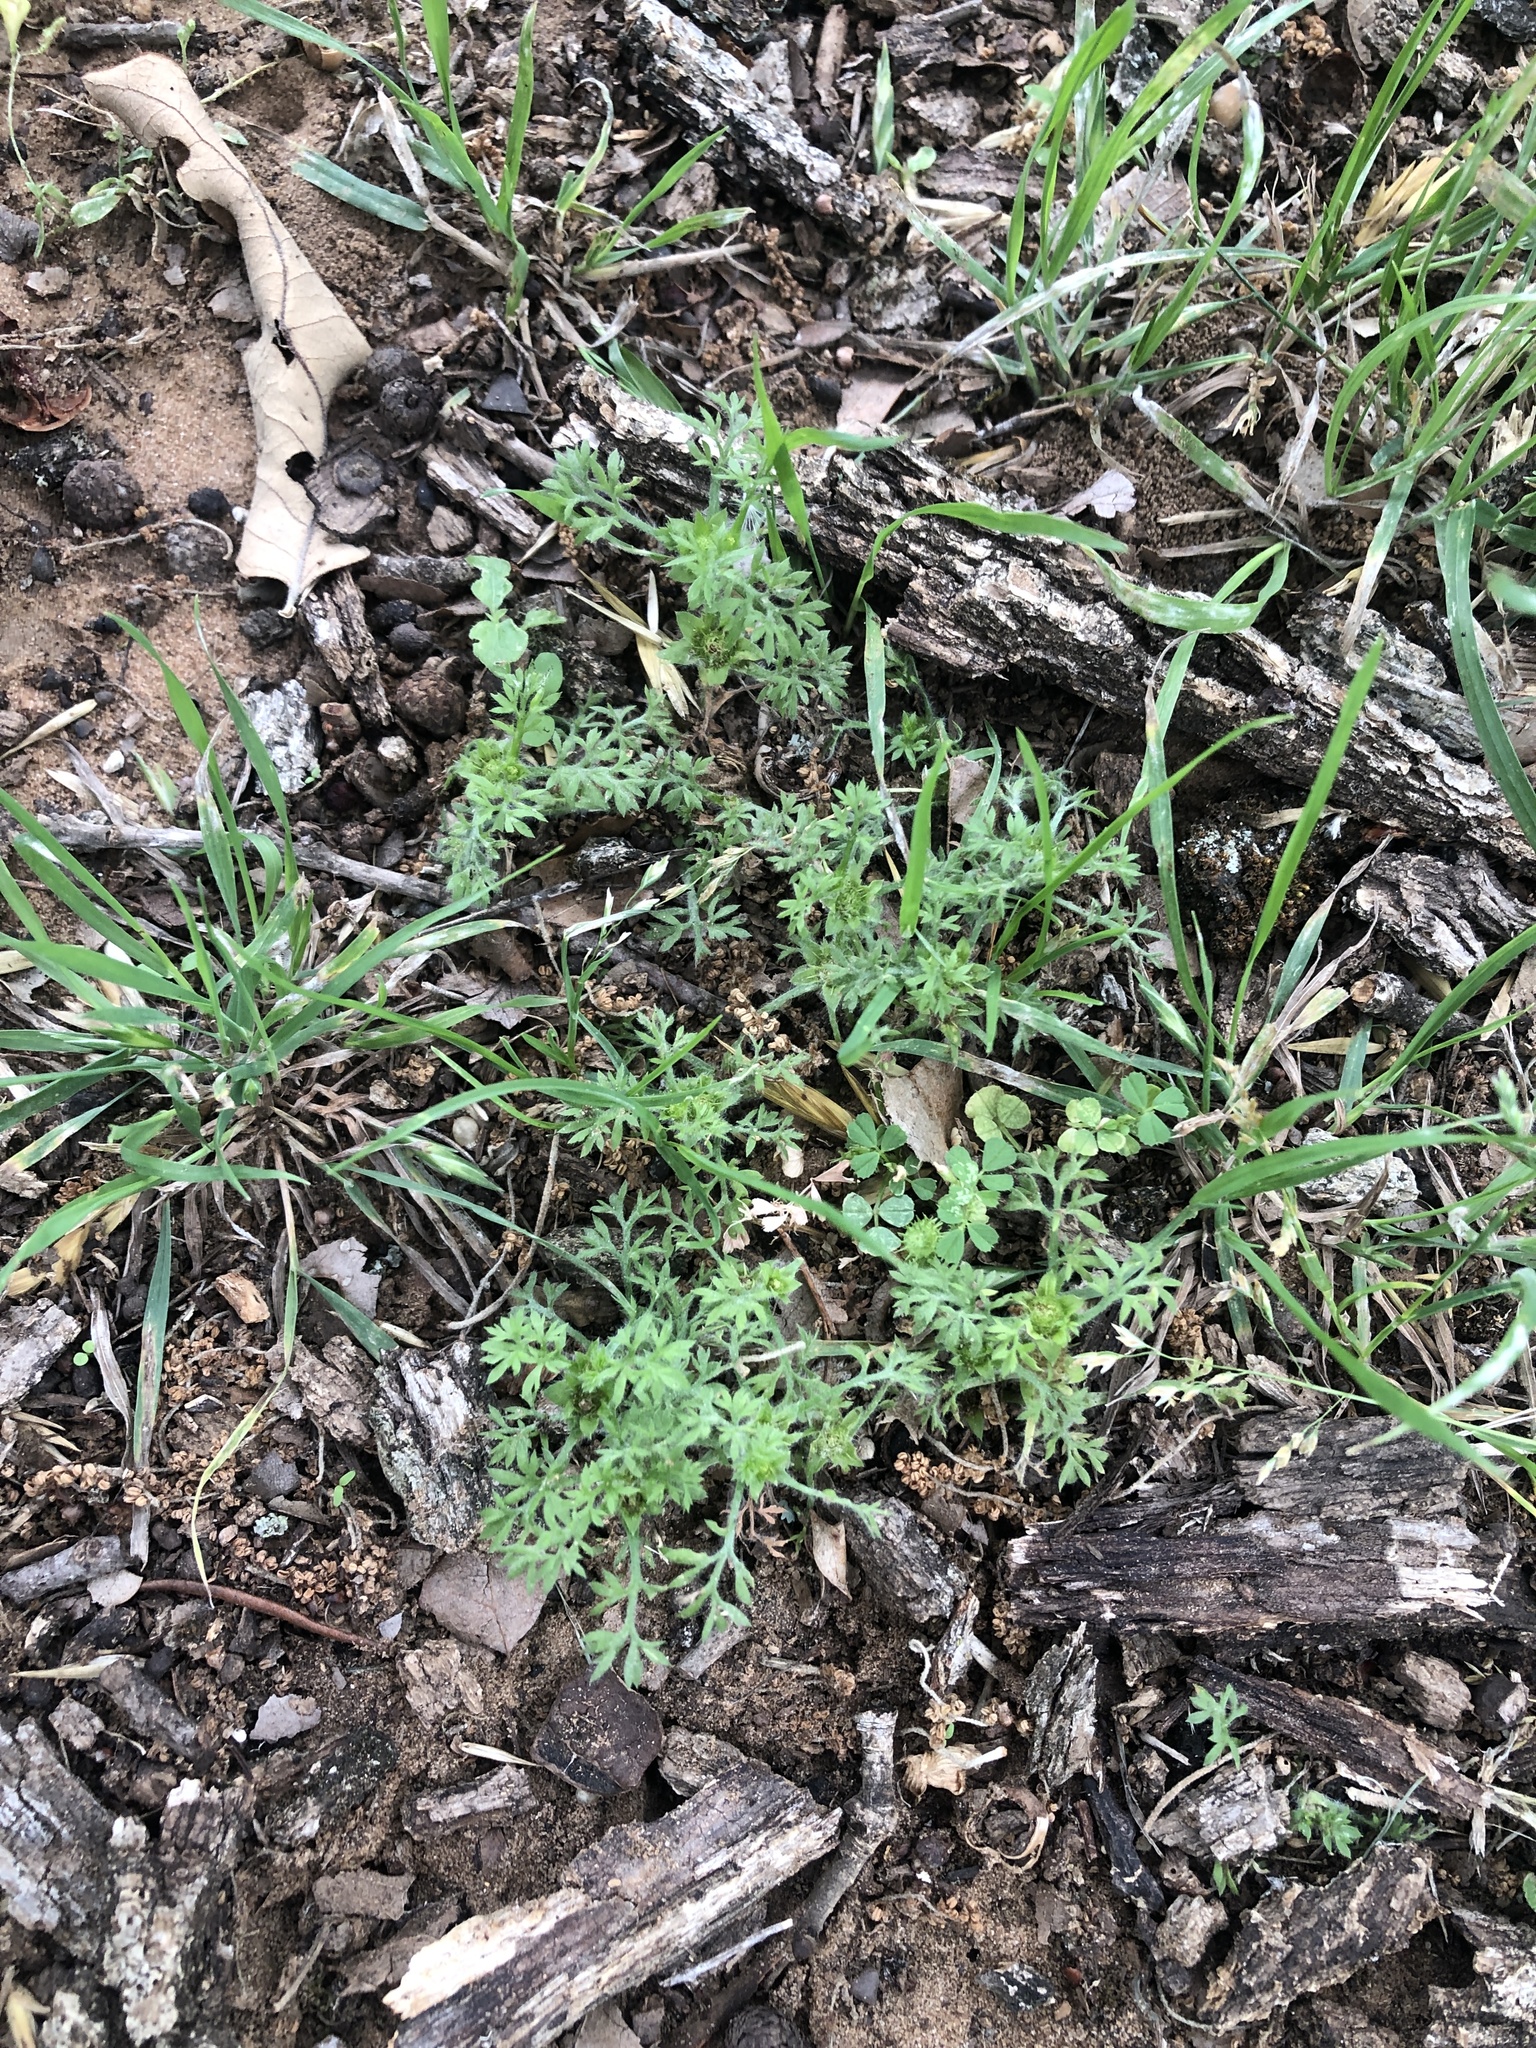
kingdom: Plantae
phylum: Tracheophyta
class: Magnoliopsida
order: Asterales
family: Asteraceae
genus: Soliva
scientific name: Soliva sessilis
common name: Field burrweed
